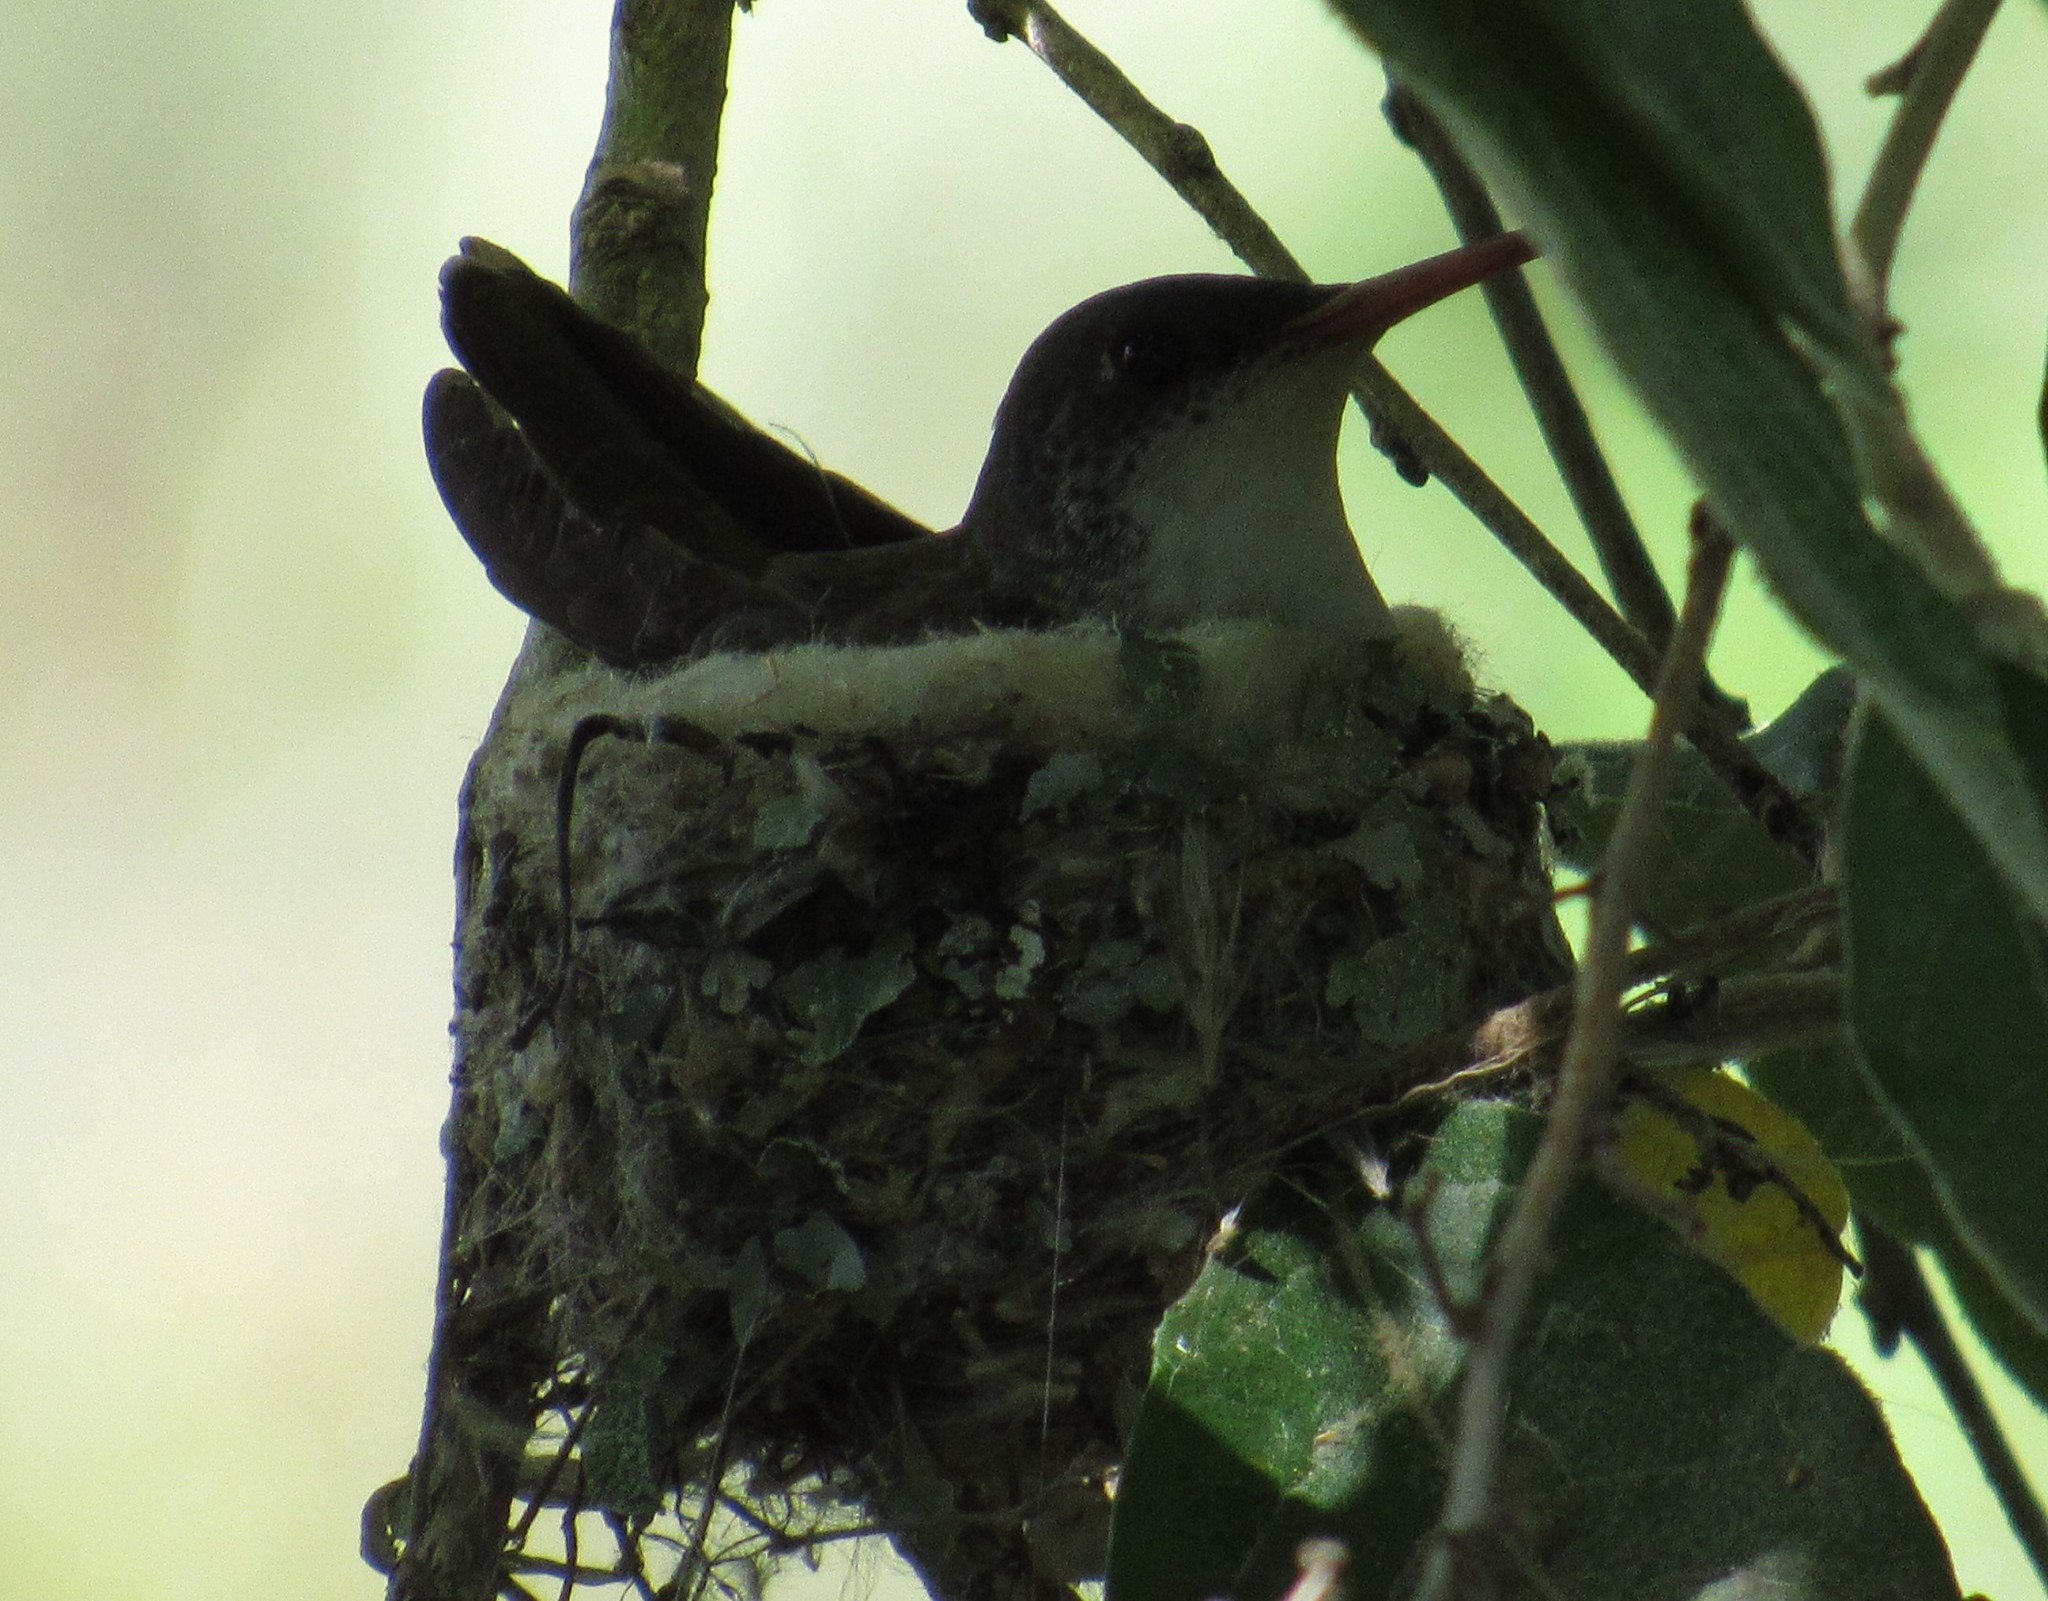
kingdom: Animalia
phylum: Chordata
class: Aves
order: Apodiformes
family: Trochilidae
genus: Leucolia
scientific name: Leucolia violiceps
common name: Violet-crowned hummingbird
